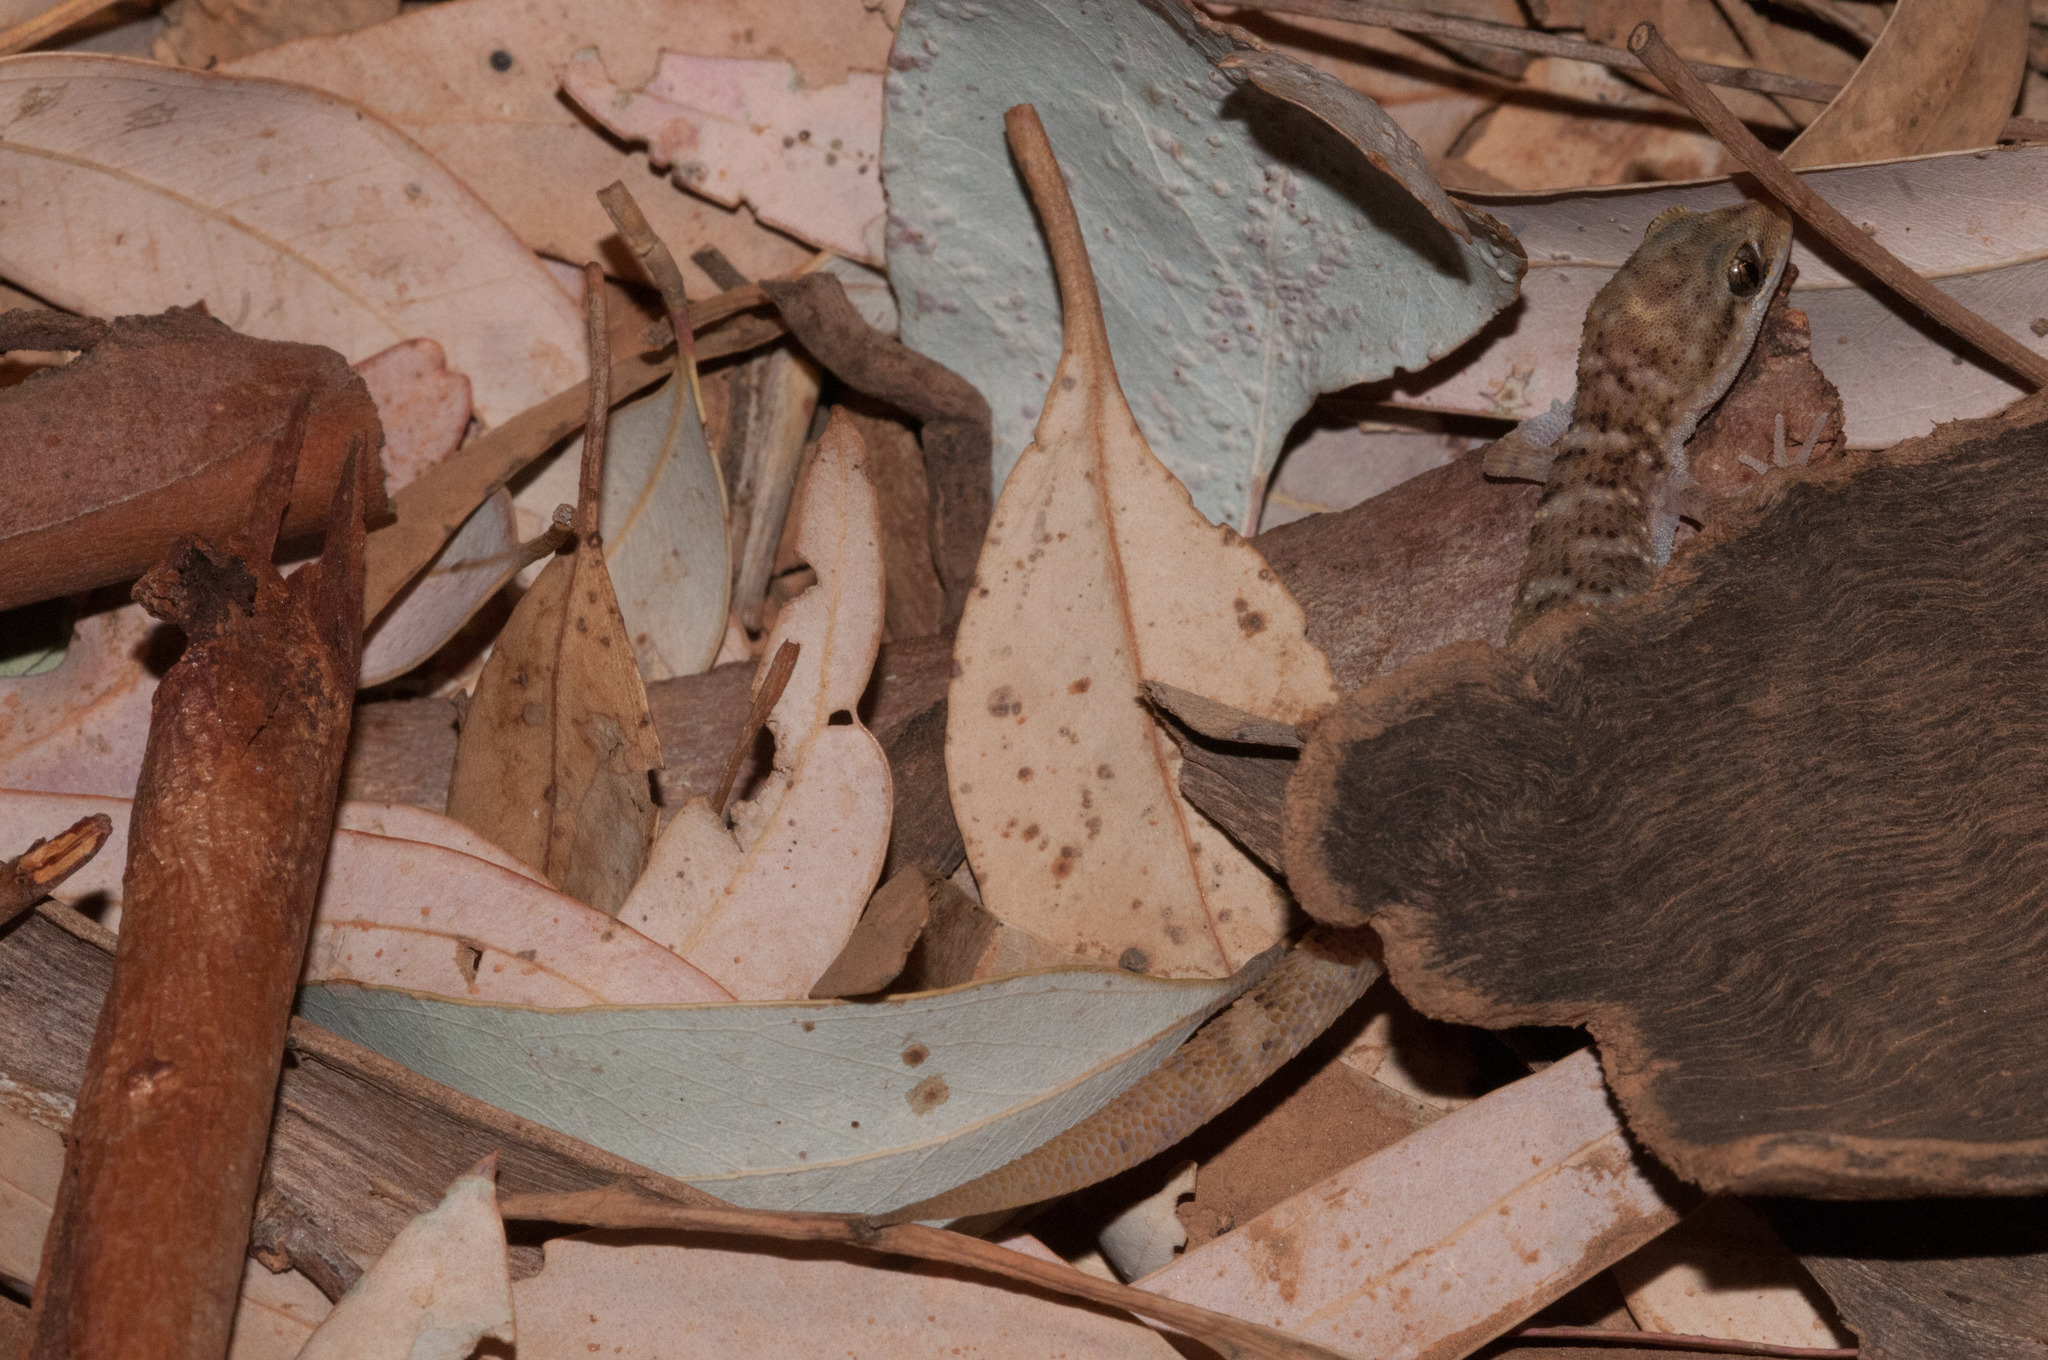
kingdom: Animalia
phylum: Chordata
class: Squamata
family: Gekkonidae
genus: Heteronotia
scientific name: Heteronotia binoei
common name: Bynoe's gecko
